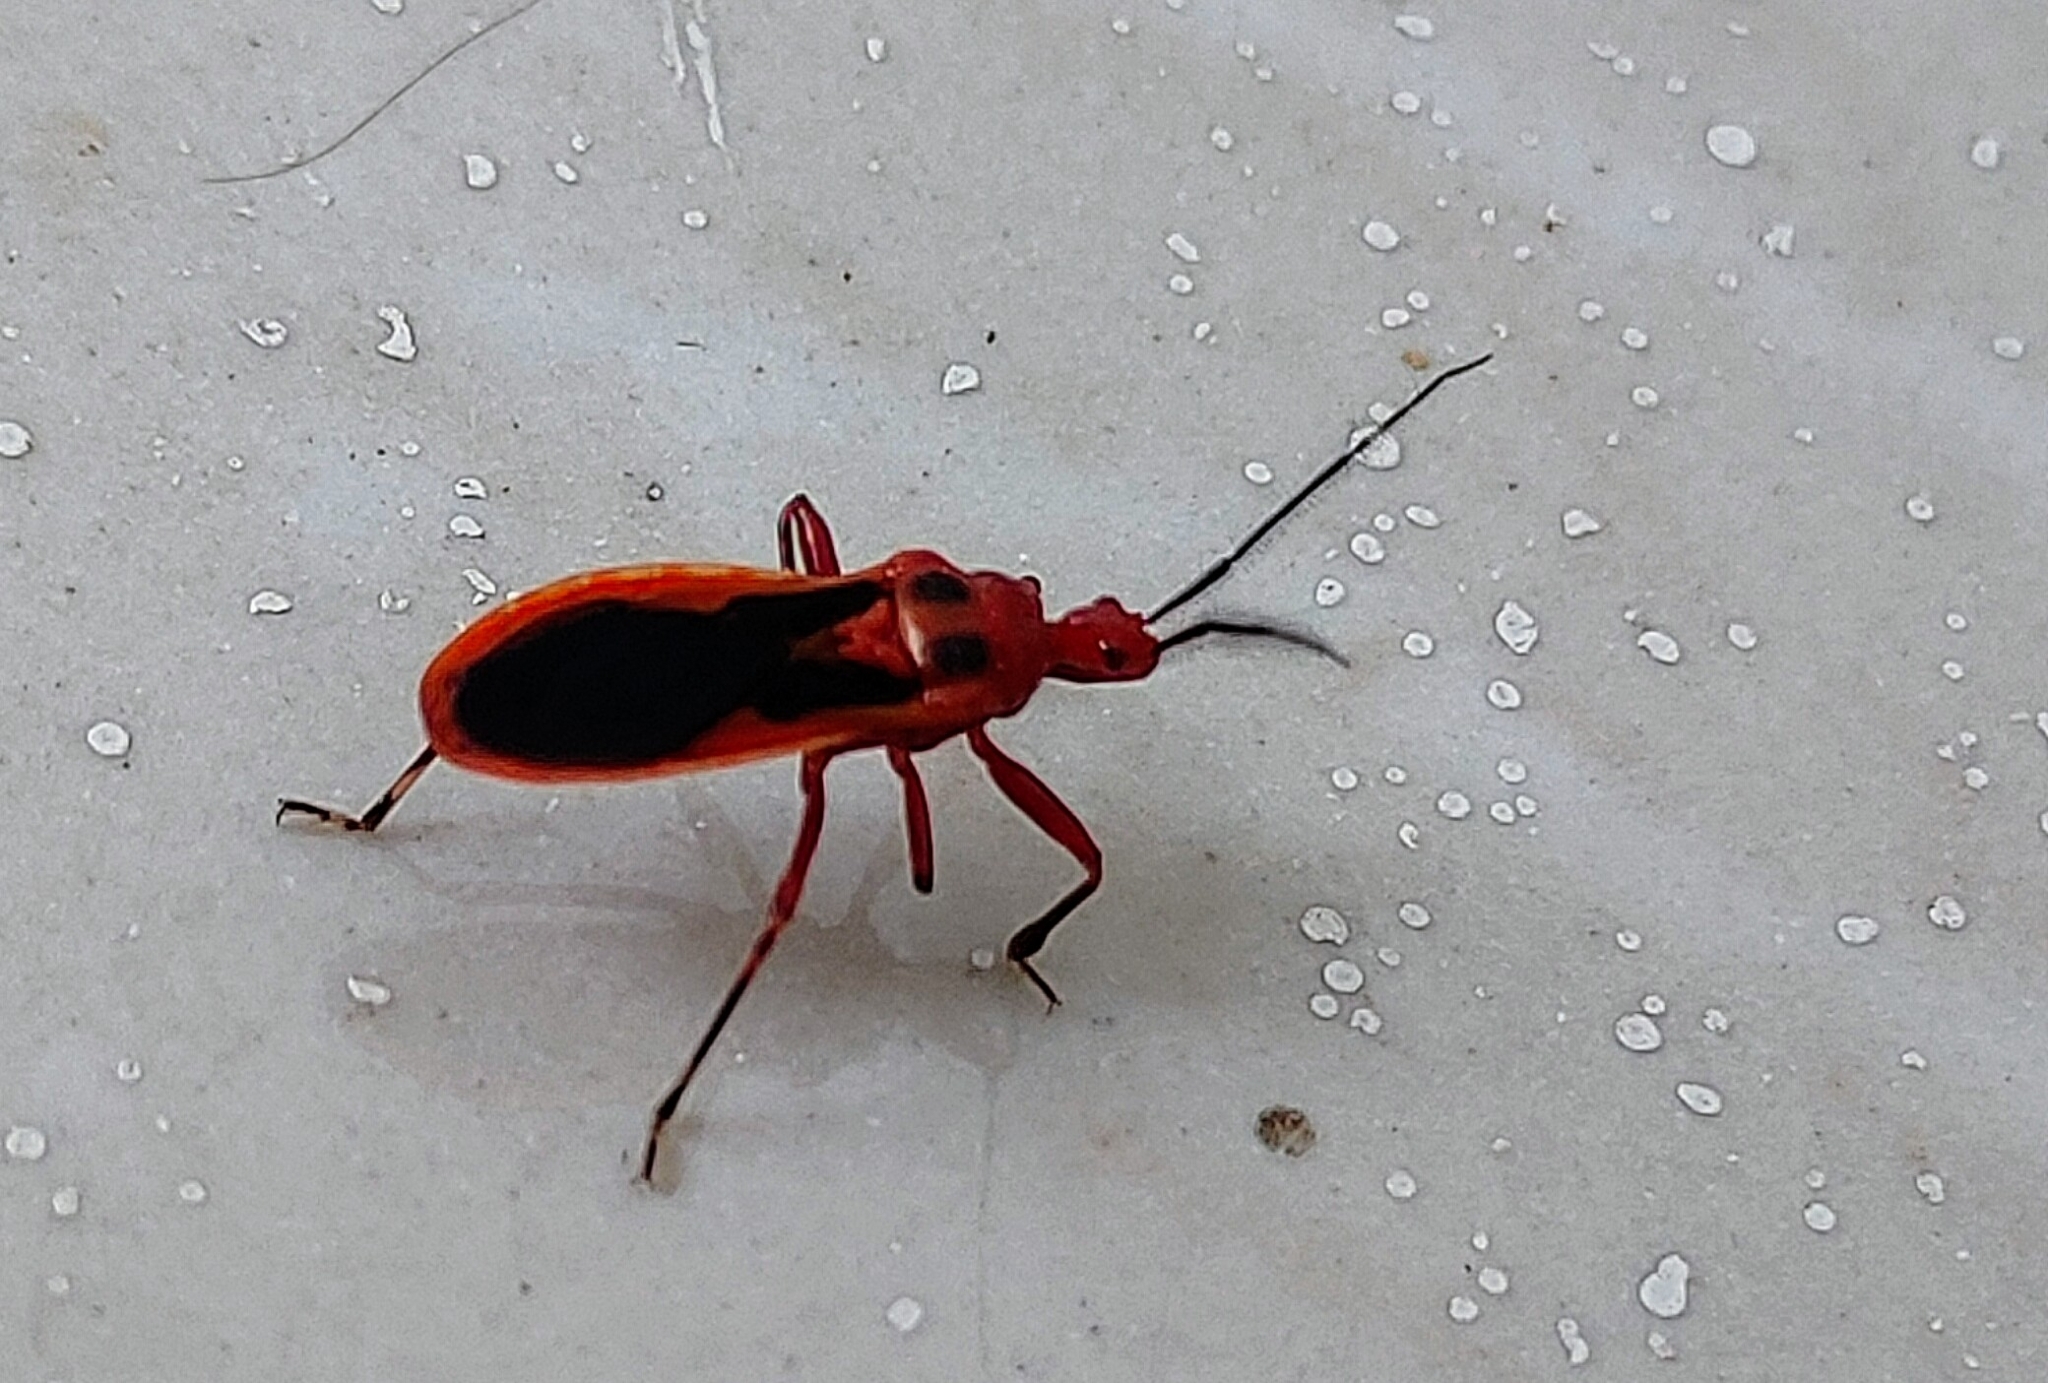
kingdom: Animalia
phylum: Arthropoda
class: Insecta
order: Hemiptera
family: Reduviidae
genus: Scadra
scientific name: Scadra annulipes
